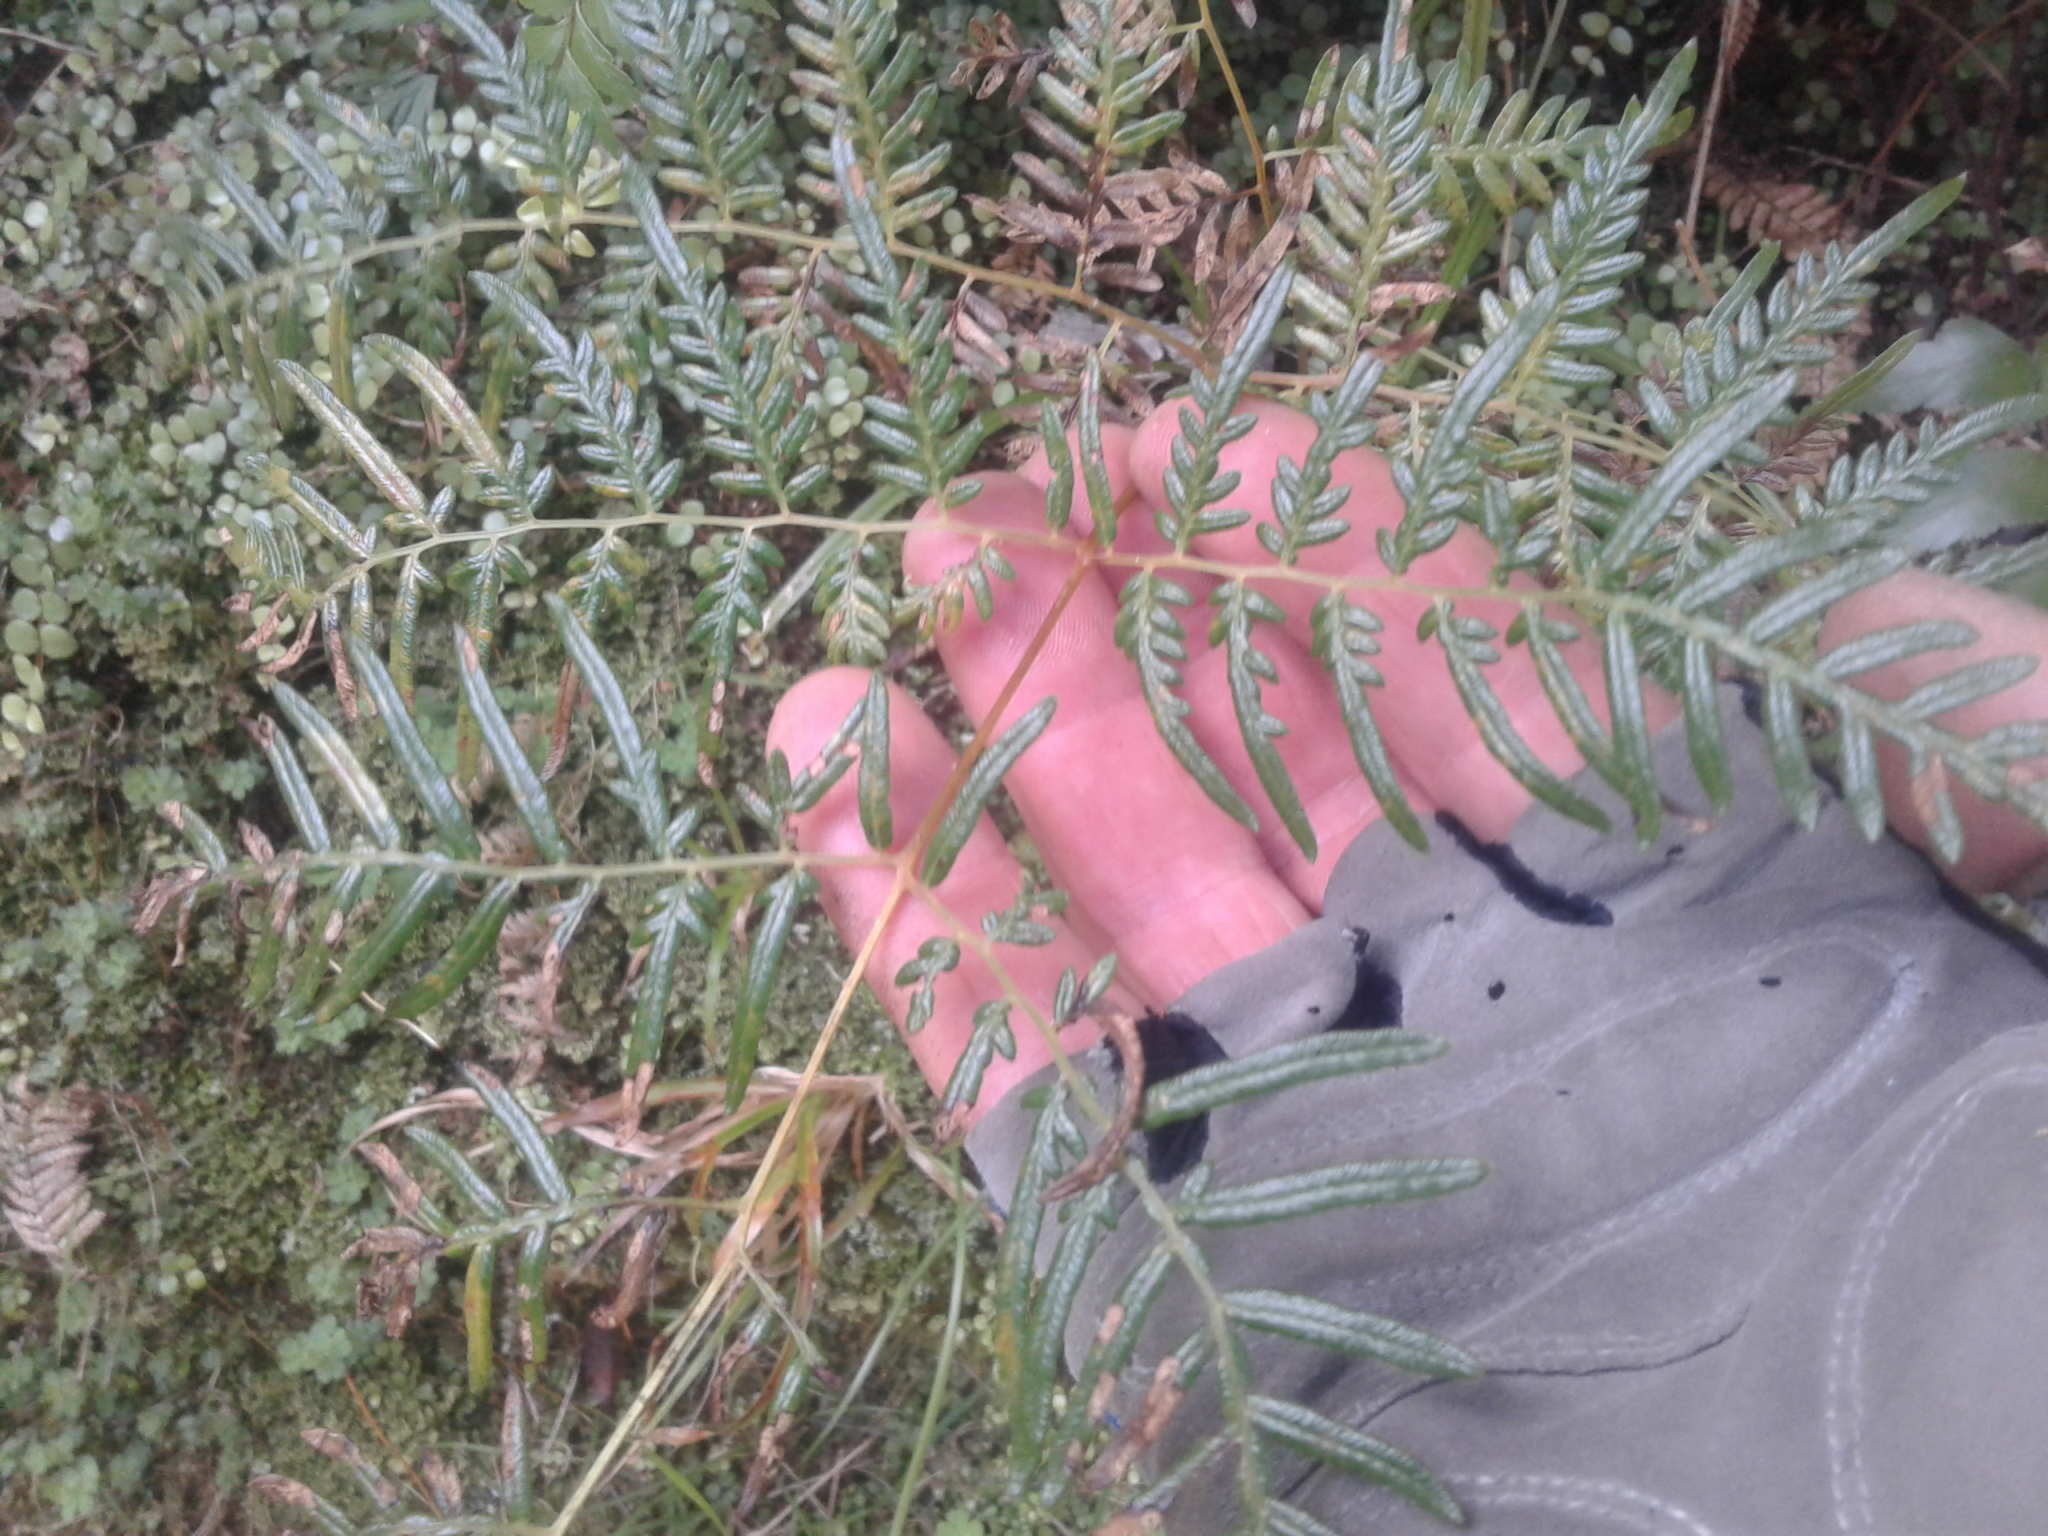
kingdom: Plantae
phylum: Tracheophyta
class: Polypodiopsida
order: Polypodiales
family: Dennstaedtiaceae
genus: Pteridium
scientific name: Pteridium esculentum
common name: Bracken fern
